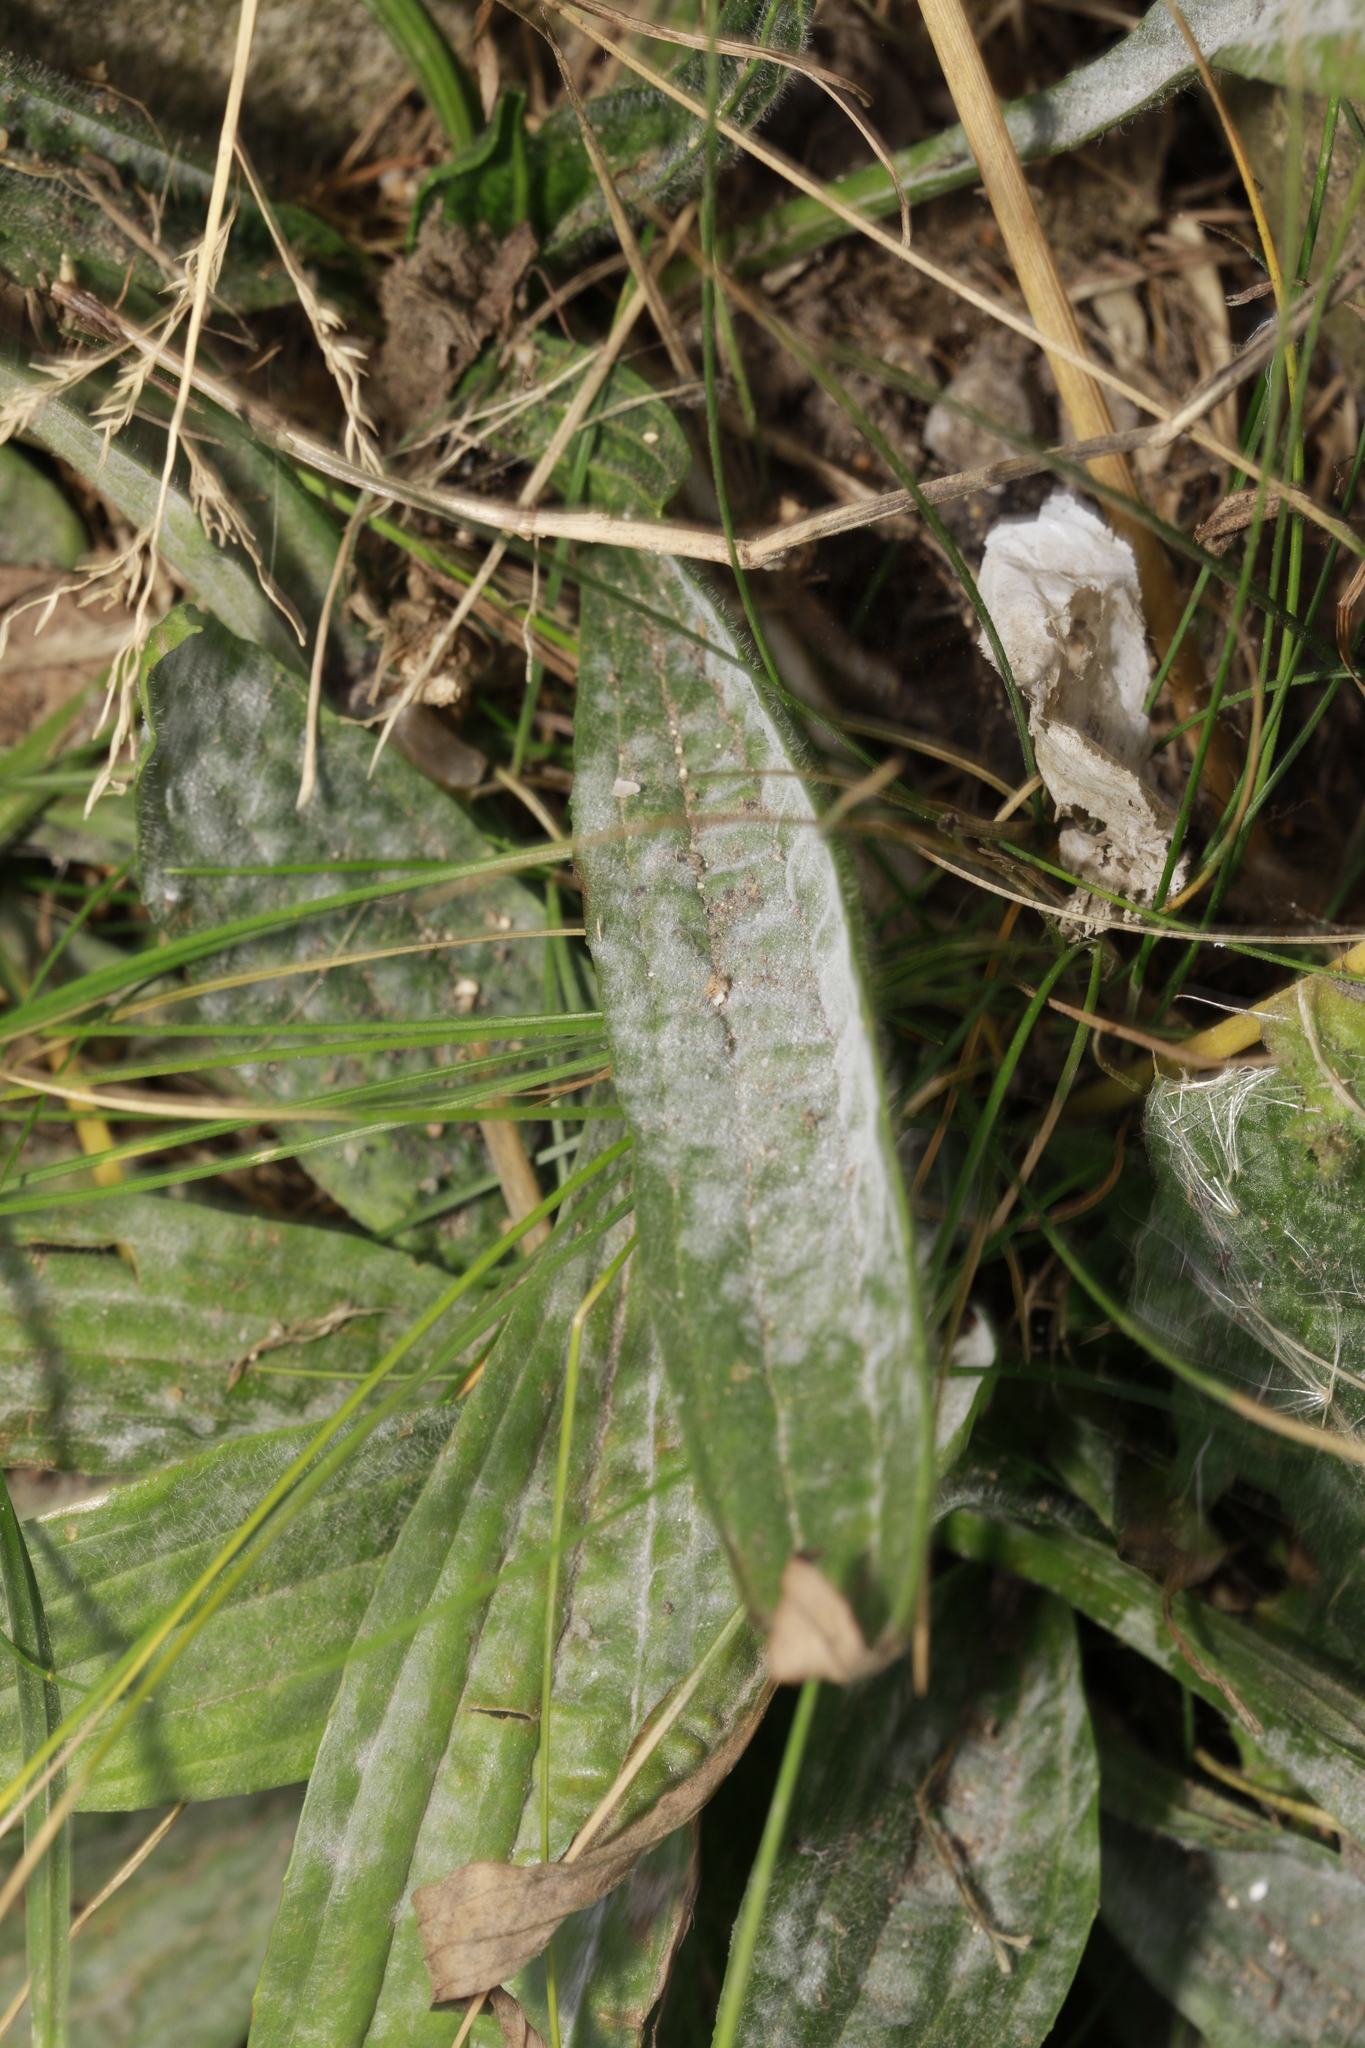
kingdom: Fungi
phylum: Ascomycota
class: Leotiomycetes
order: Helotiales
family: Erysiphaceae
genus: Golovinomyces
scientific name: Golovinomyces sordidus
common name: Plantain mildew
